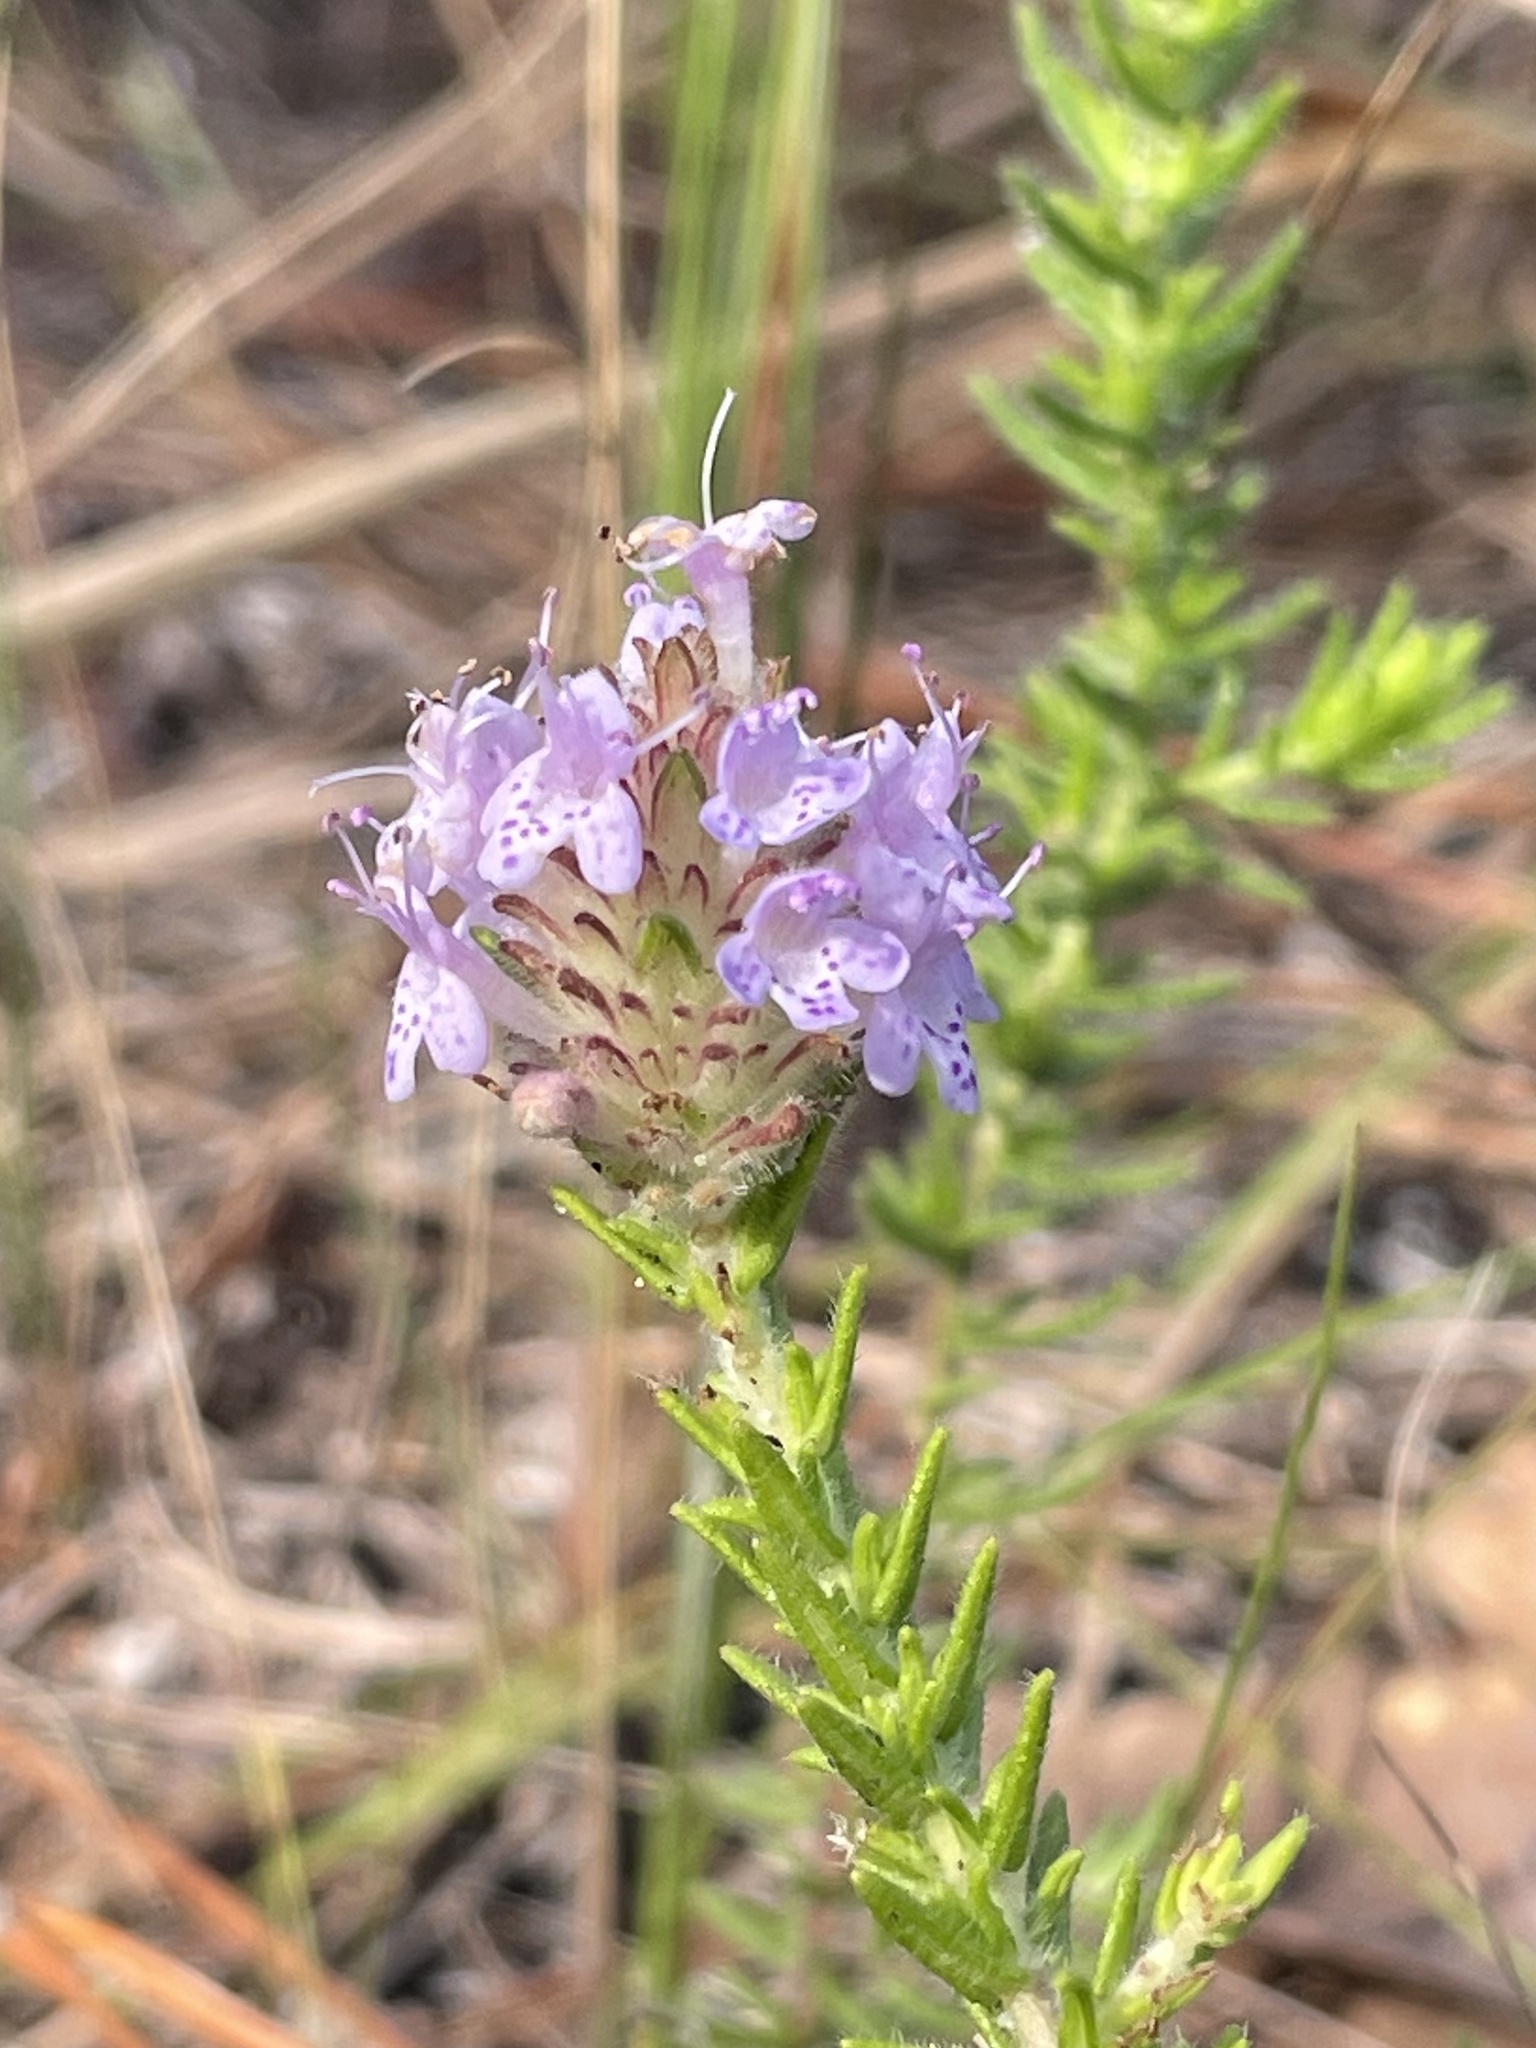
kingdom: Plantae
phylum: Tracheophyta
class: Magnoliopsida
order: Lamiales
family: Lamiaceae
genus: Piloblephis
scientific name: Piloblephis rigida
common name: Wild pennyroyal
